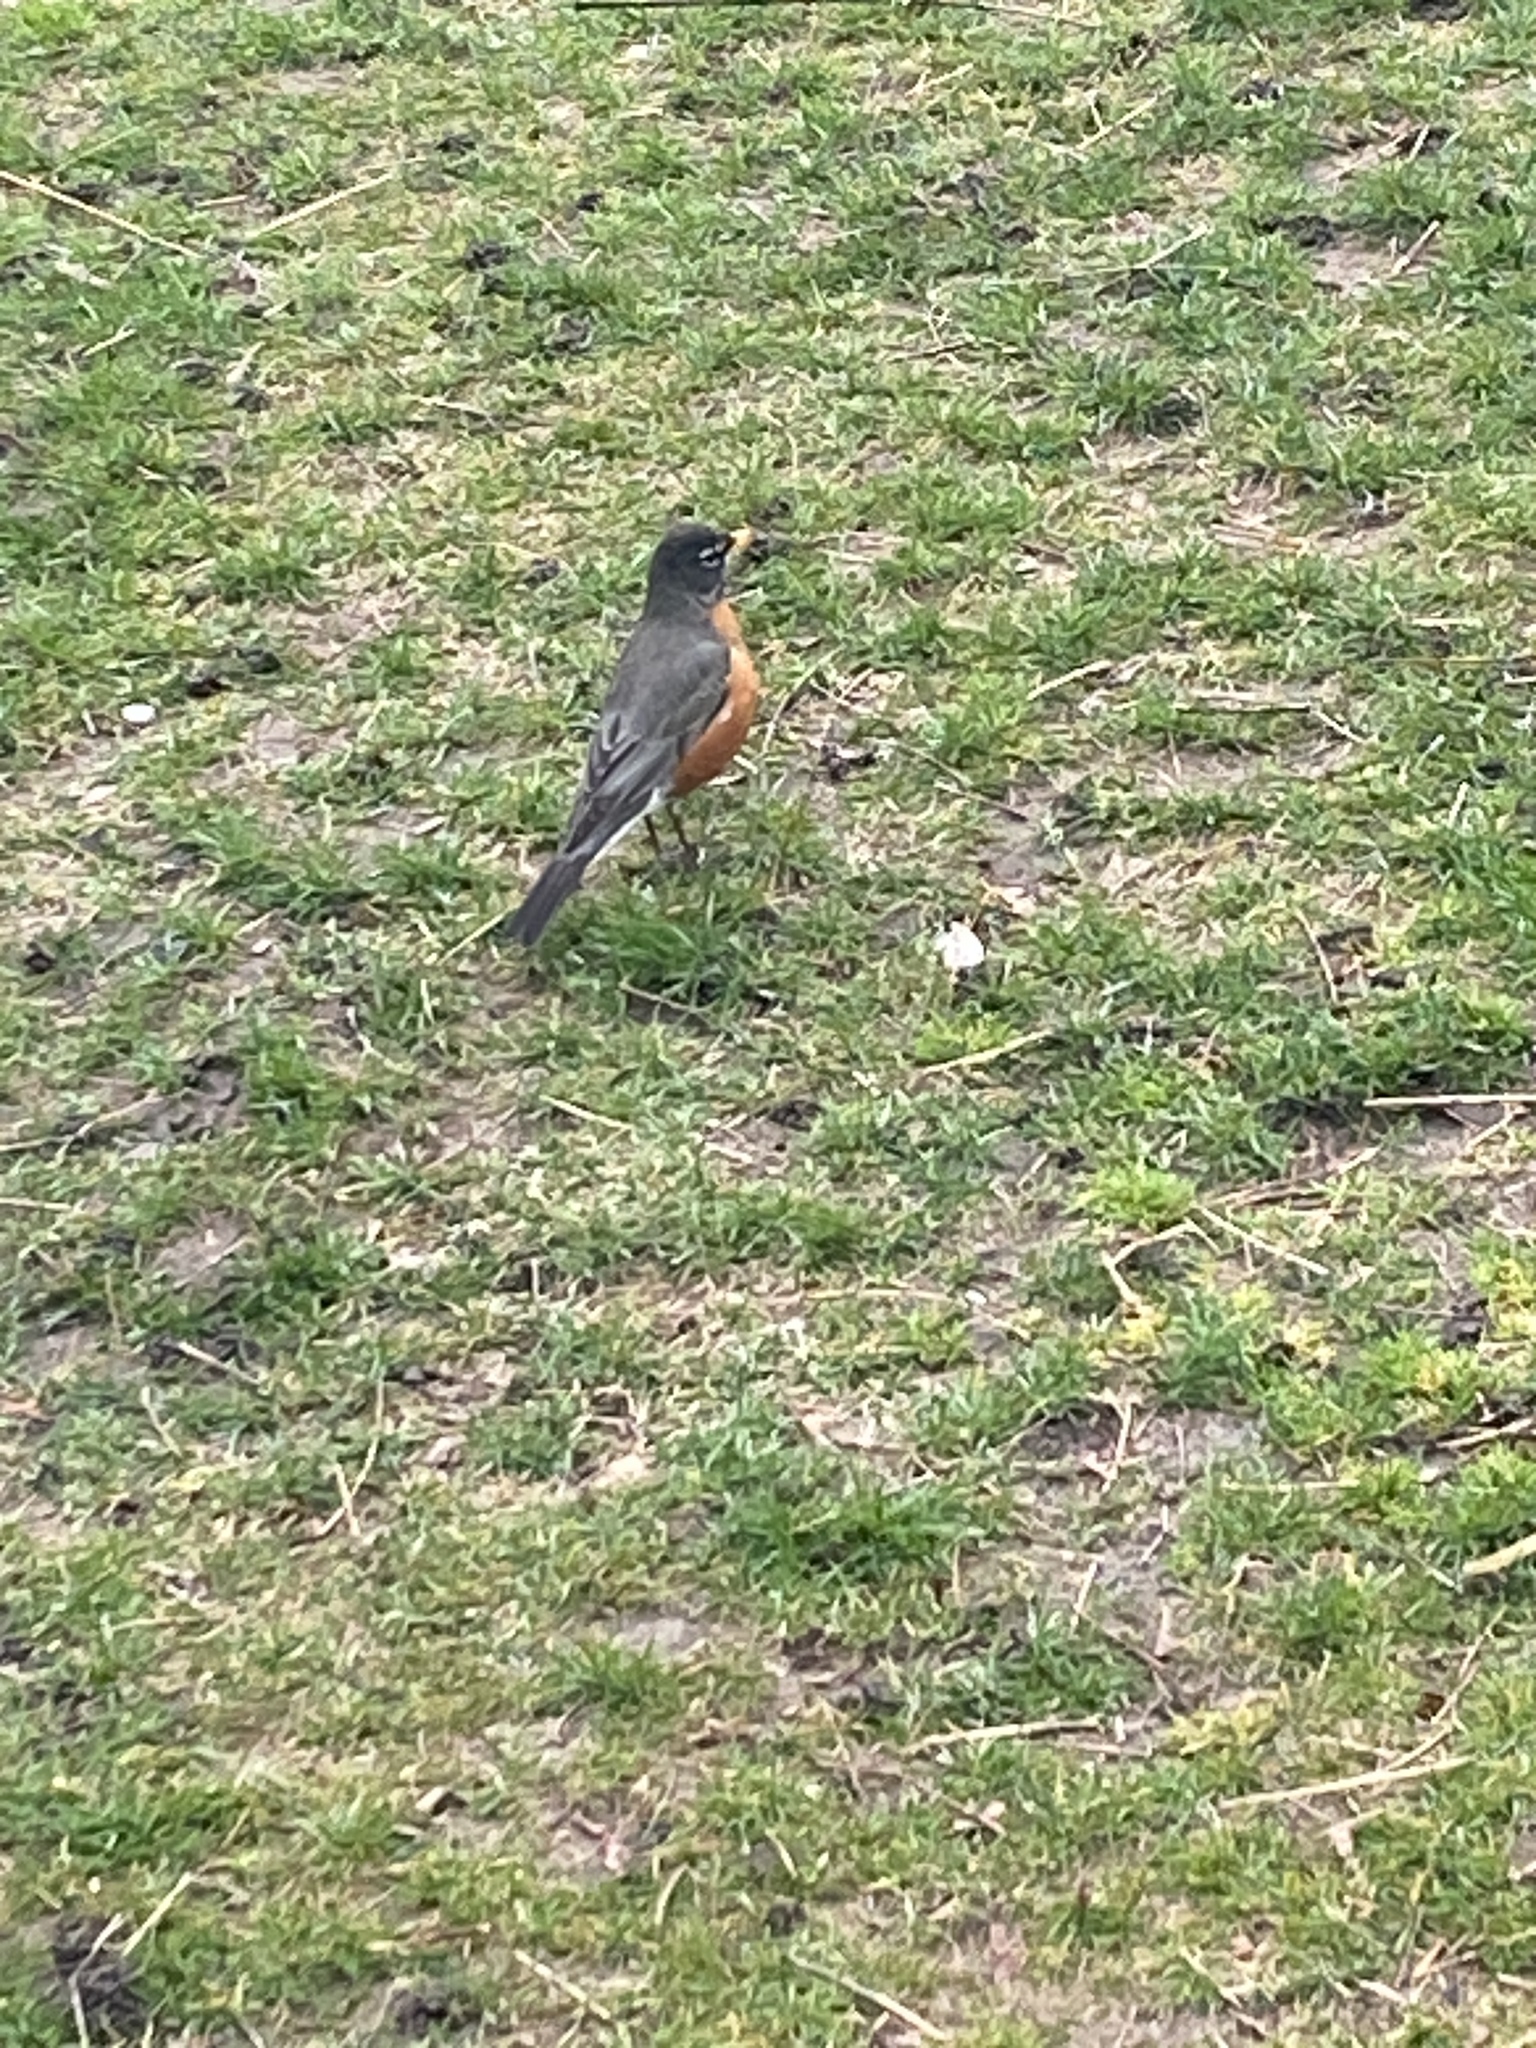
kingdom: Animalia
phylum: Chordata
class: Aves
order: Passeriformes
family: Turdidae
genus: Turdus
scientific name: Turdus migratorius
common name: American robin
